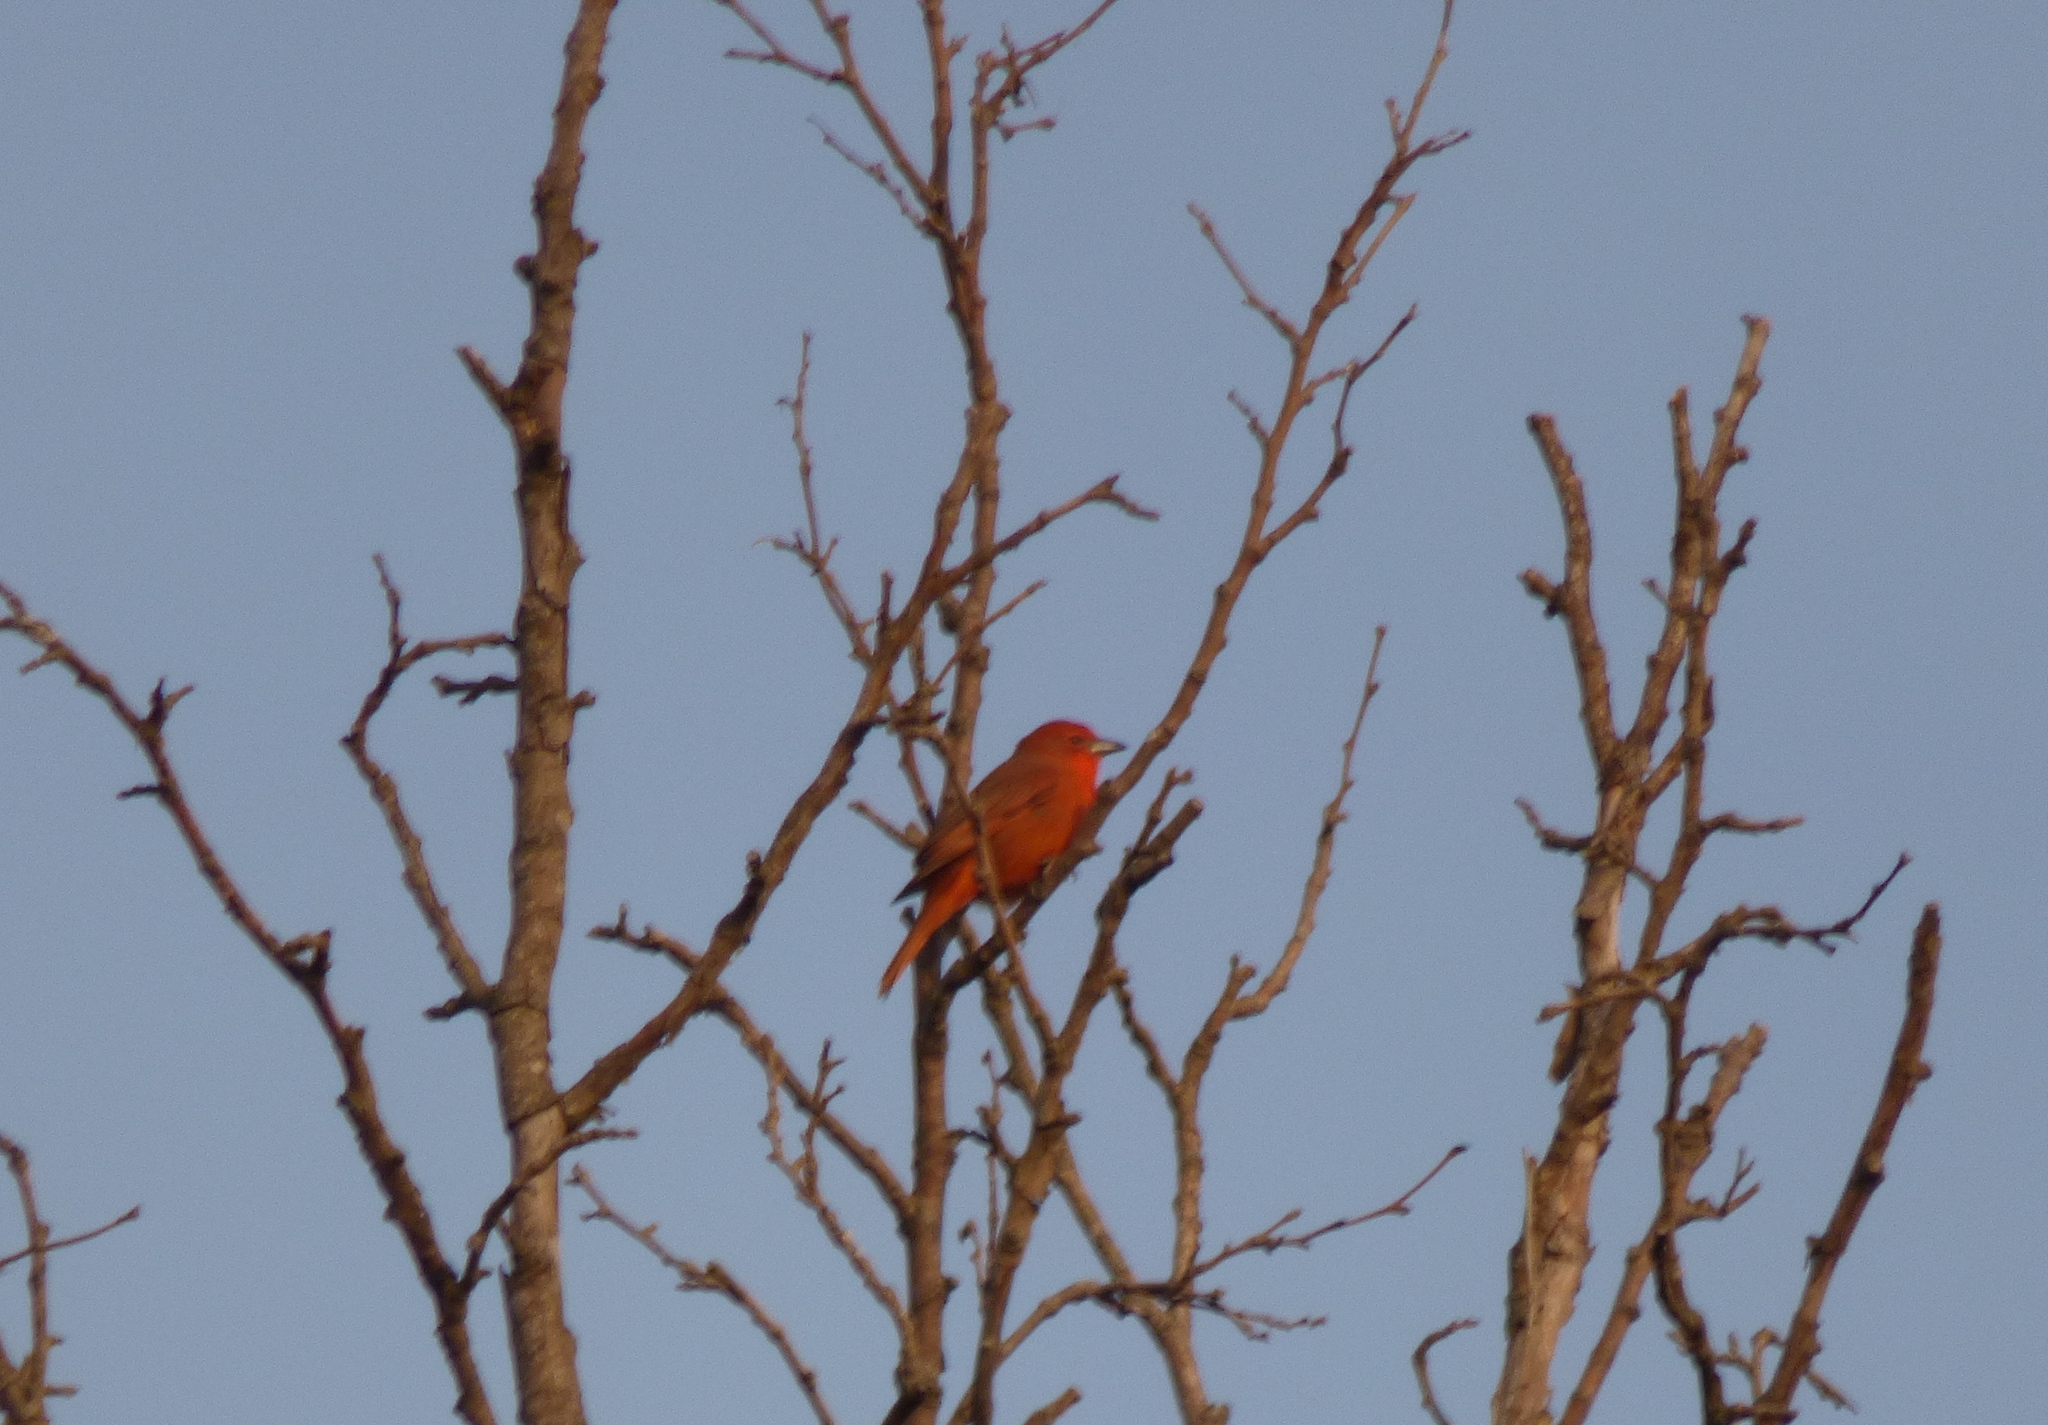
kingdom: Animalia
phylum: Chordata
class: Aves
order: Passeriformes
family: Cardinalidae
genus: Piranga
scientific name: Piranga flava
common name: Red tanager
